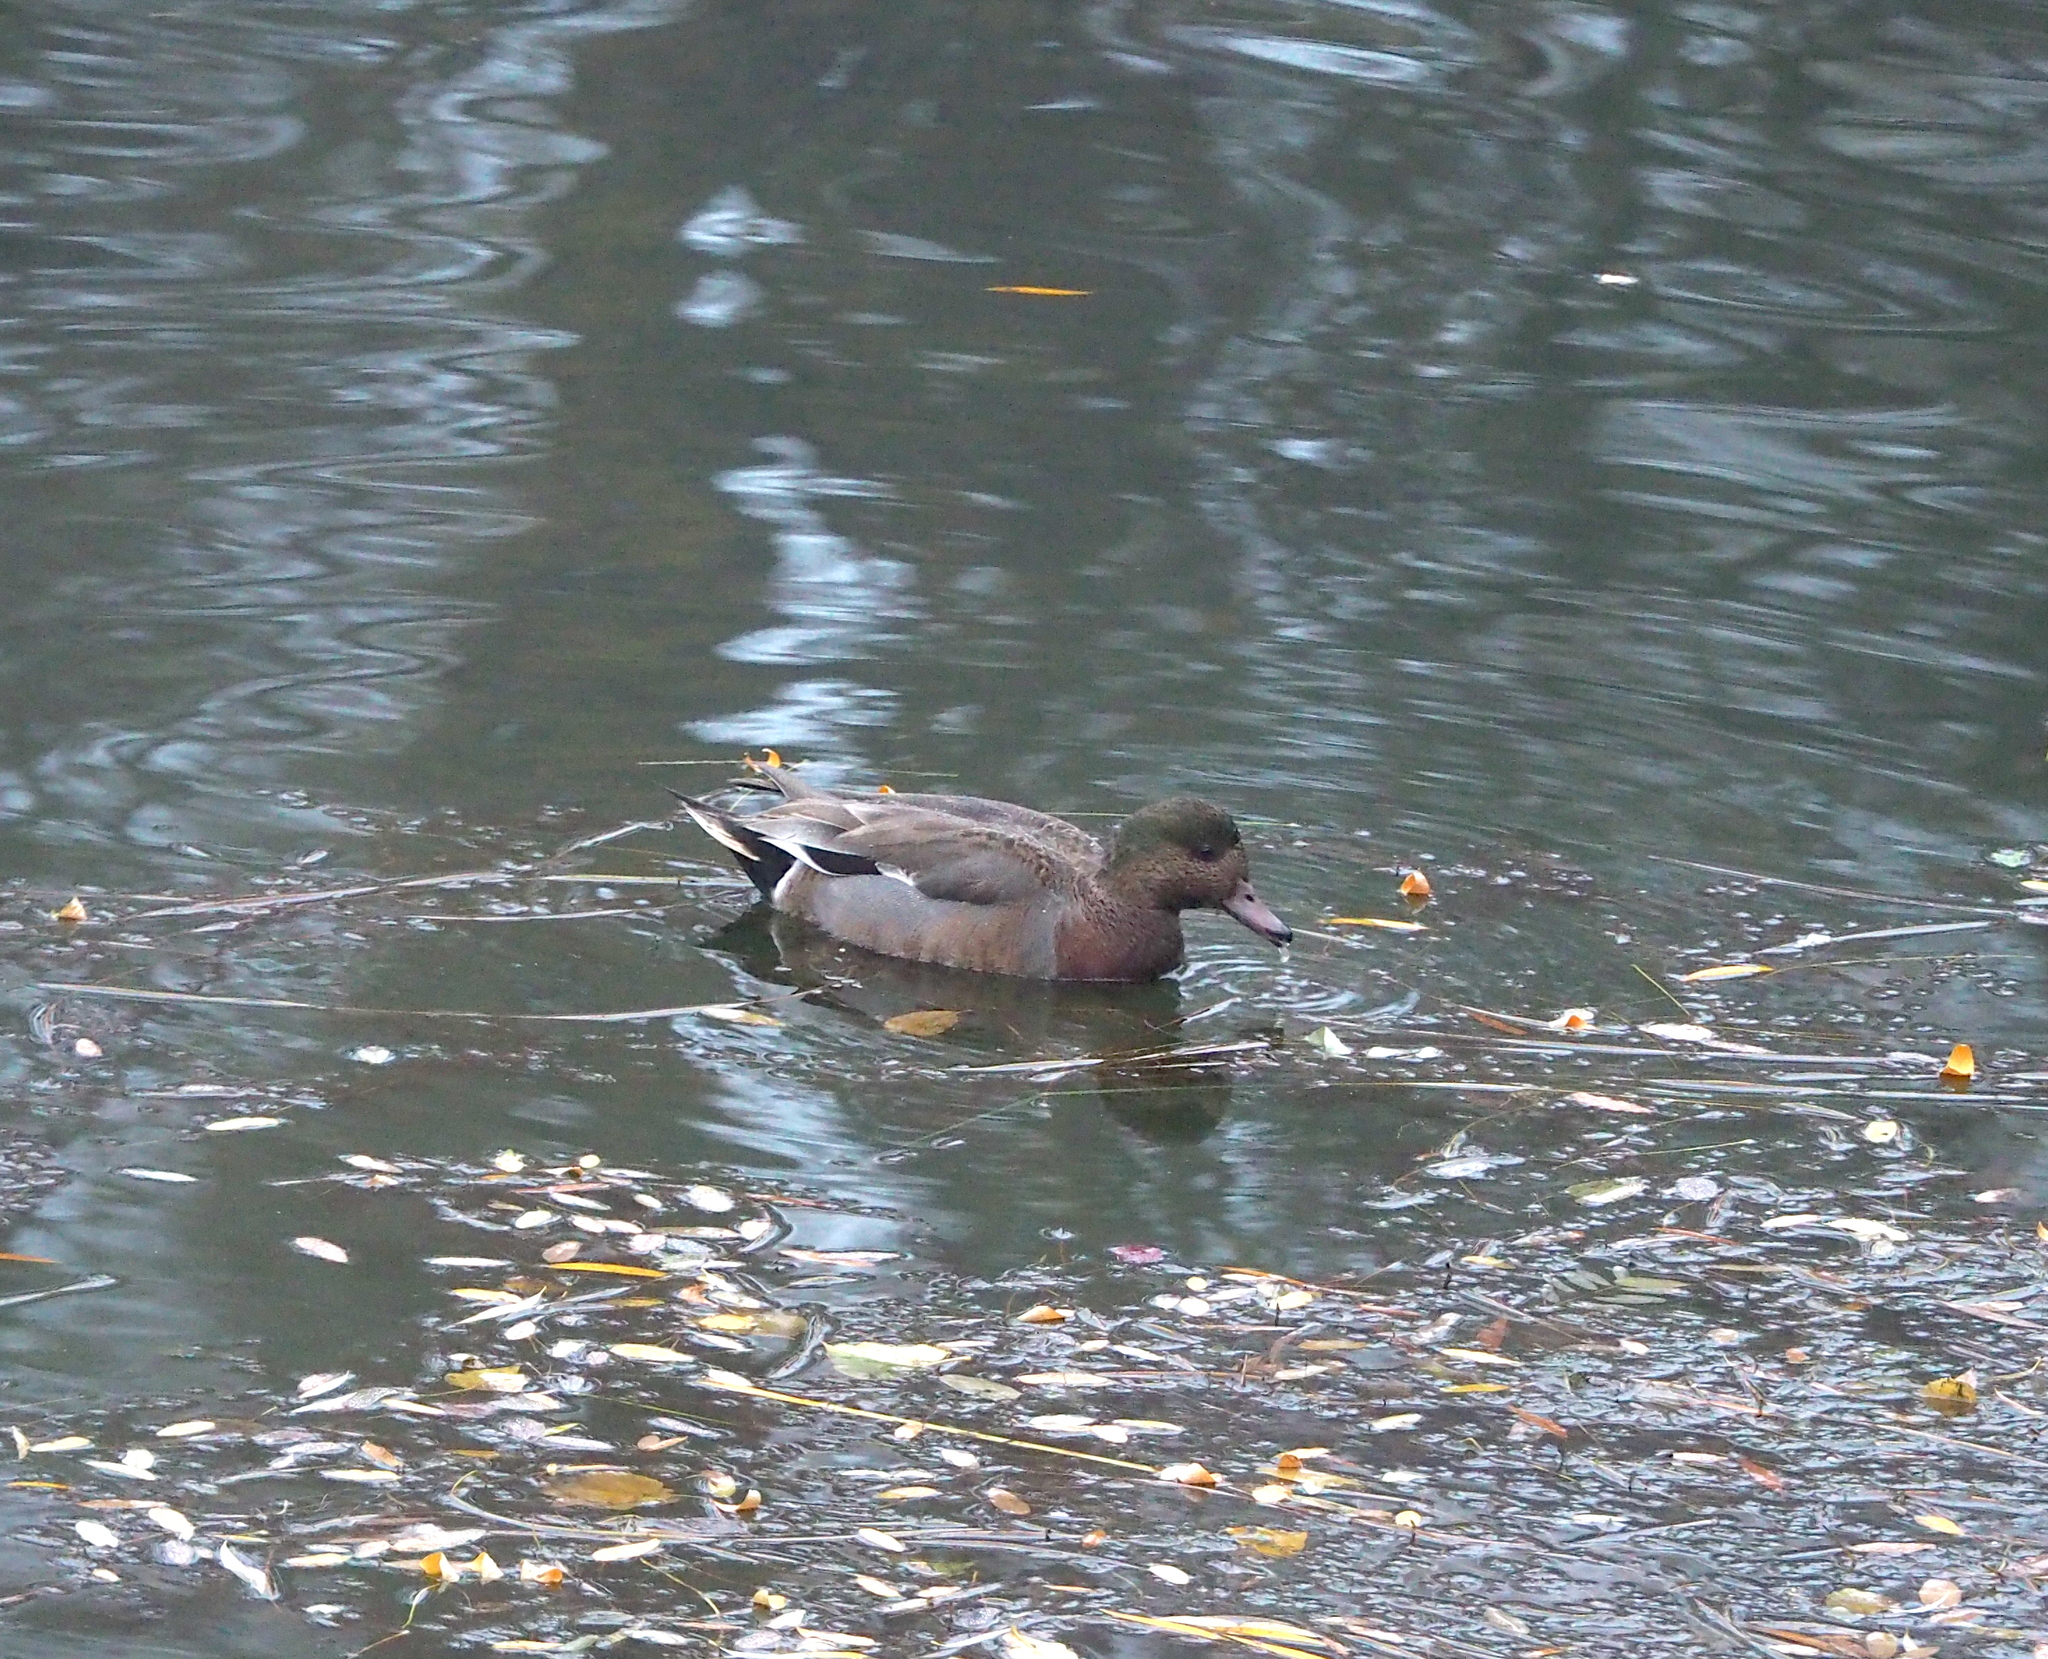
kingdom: Animalia
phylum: Chordata
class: Aves
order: Anseriformes
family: Anatidae
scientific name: Anatidae
